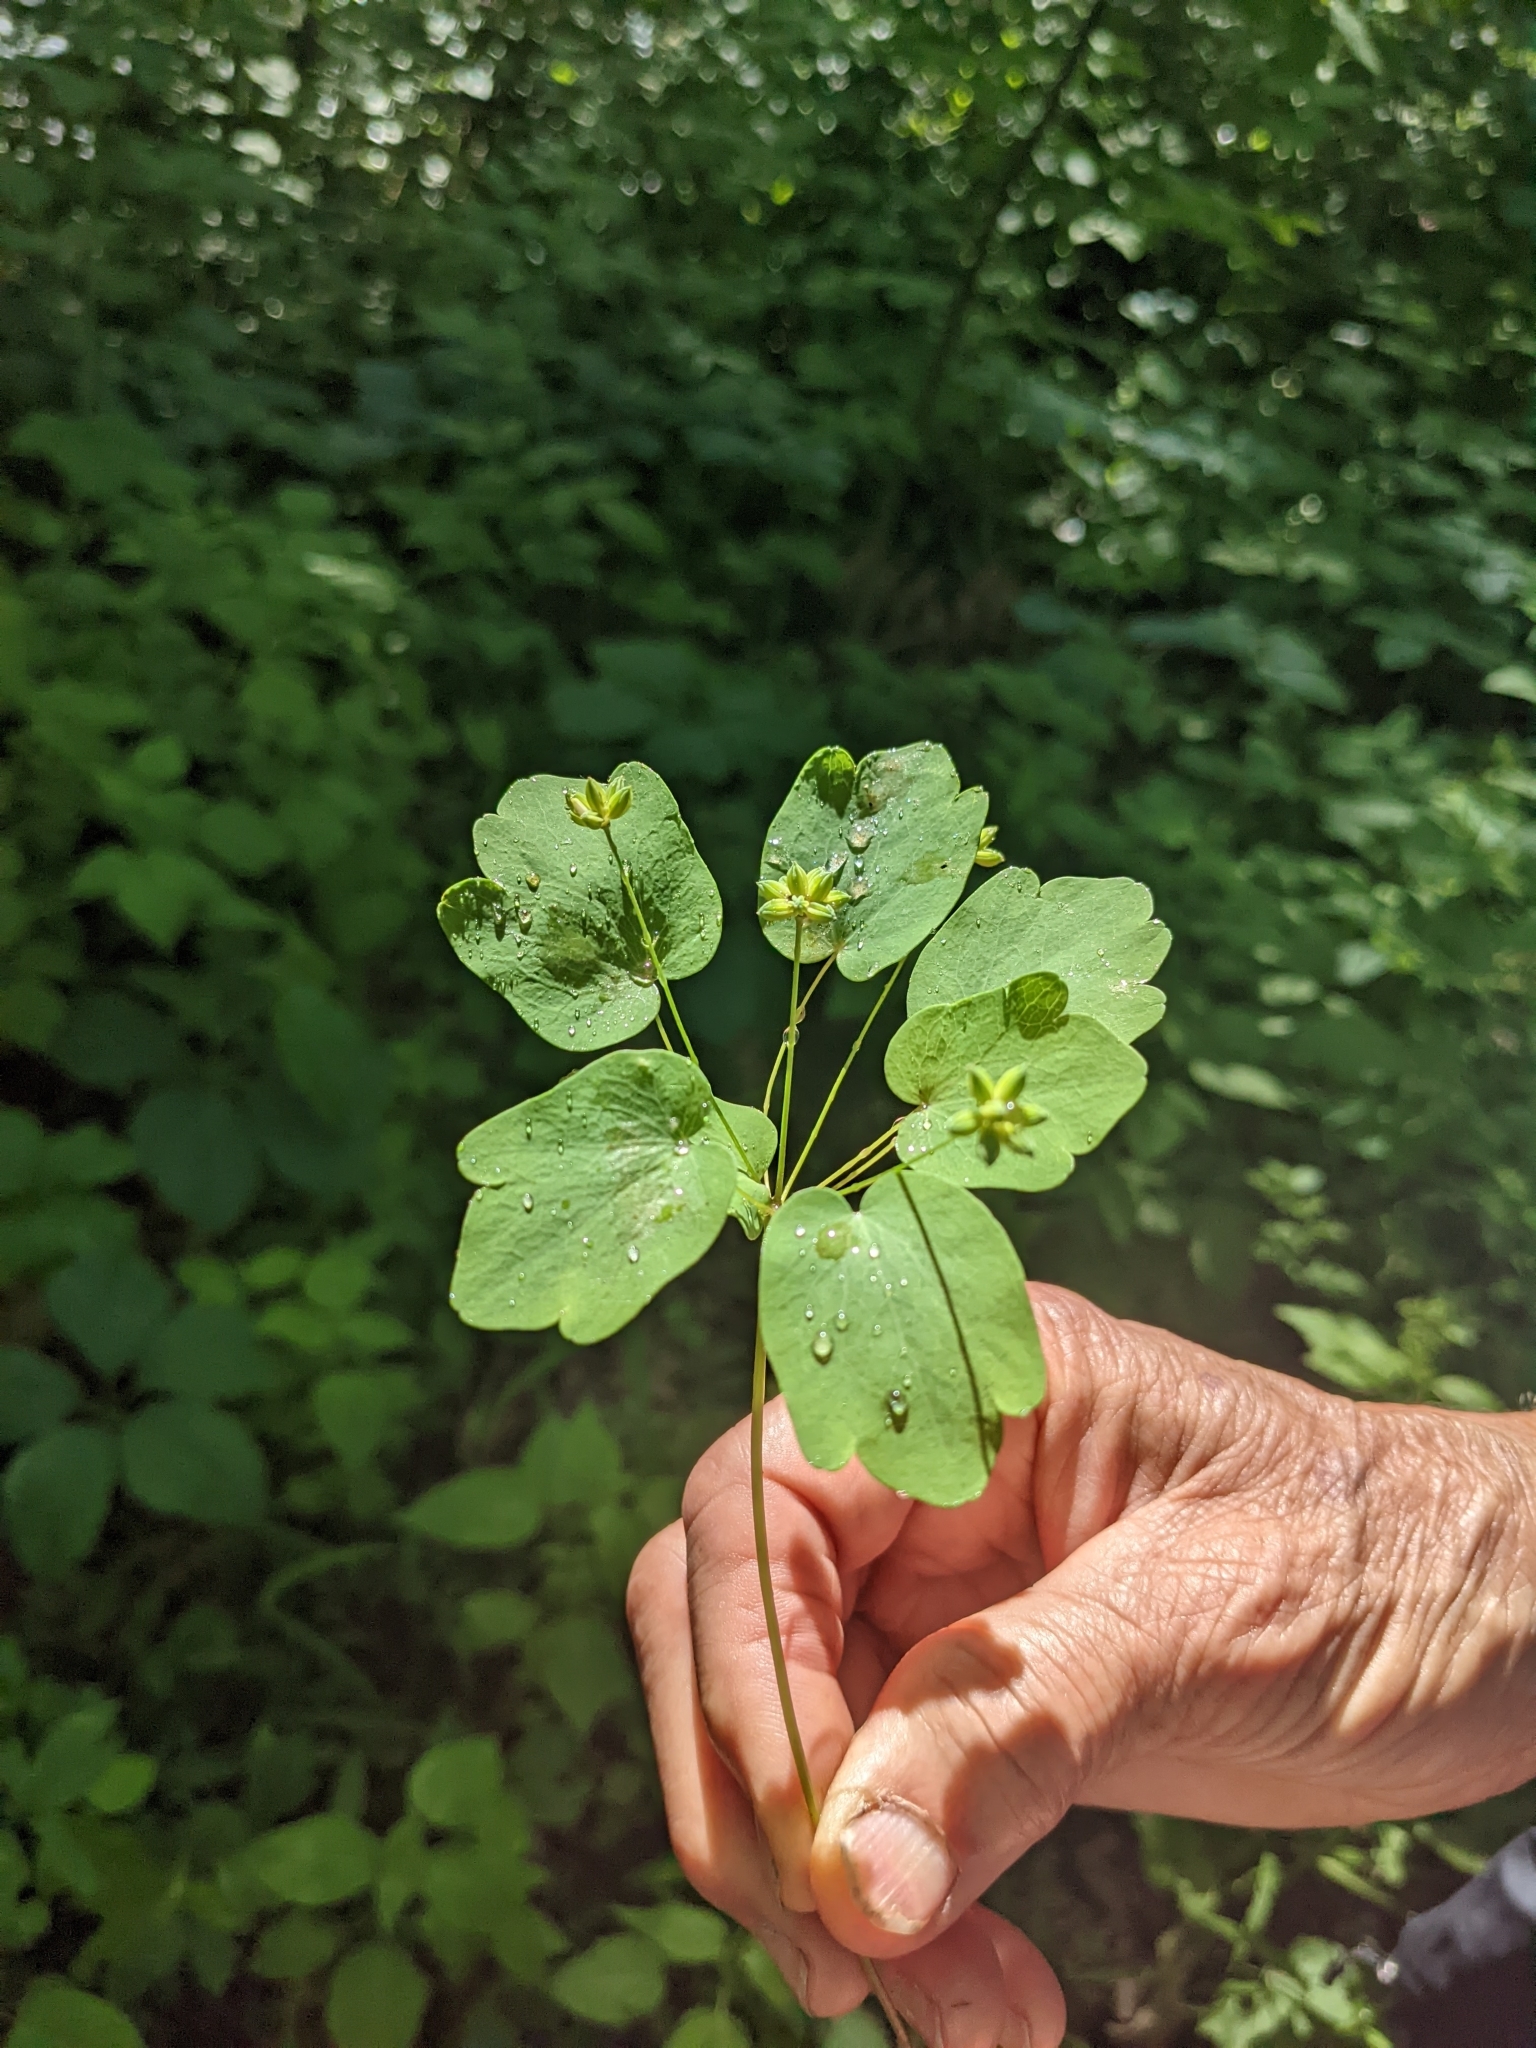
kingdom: Plantae
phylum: Tracheophyta
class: Magnoliopsida
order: Ranunculales
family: Ranunculaceae
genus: Thalictrum
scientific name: Thalictrum thalictroides
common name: Rue-anemone
